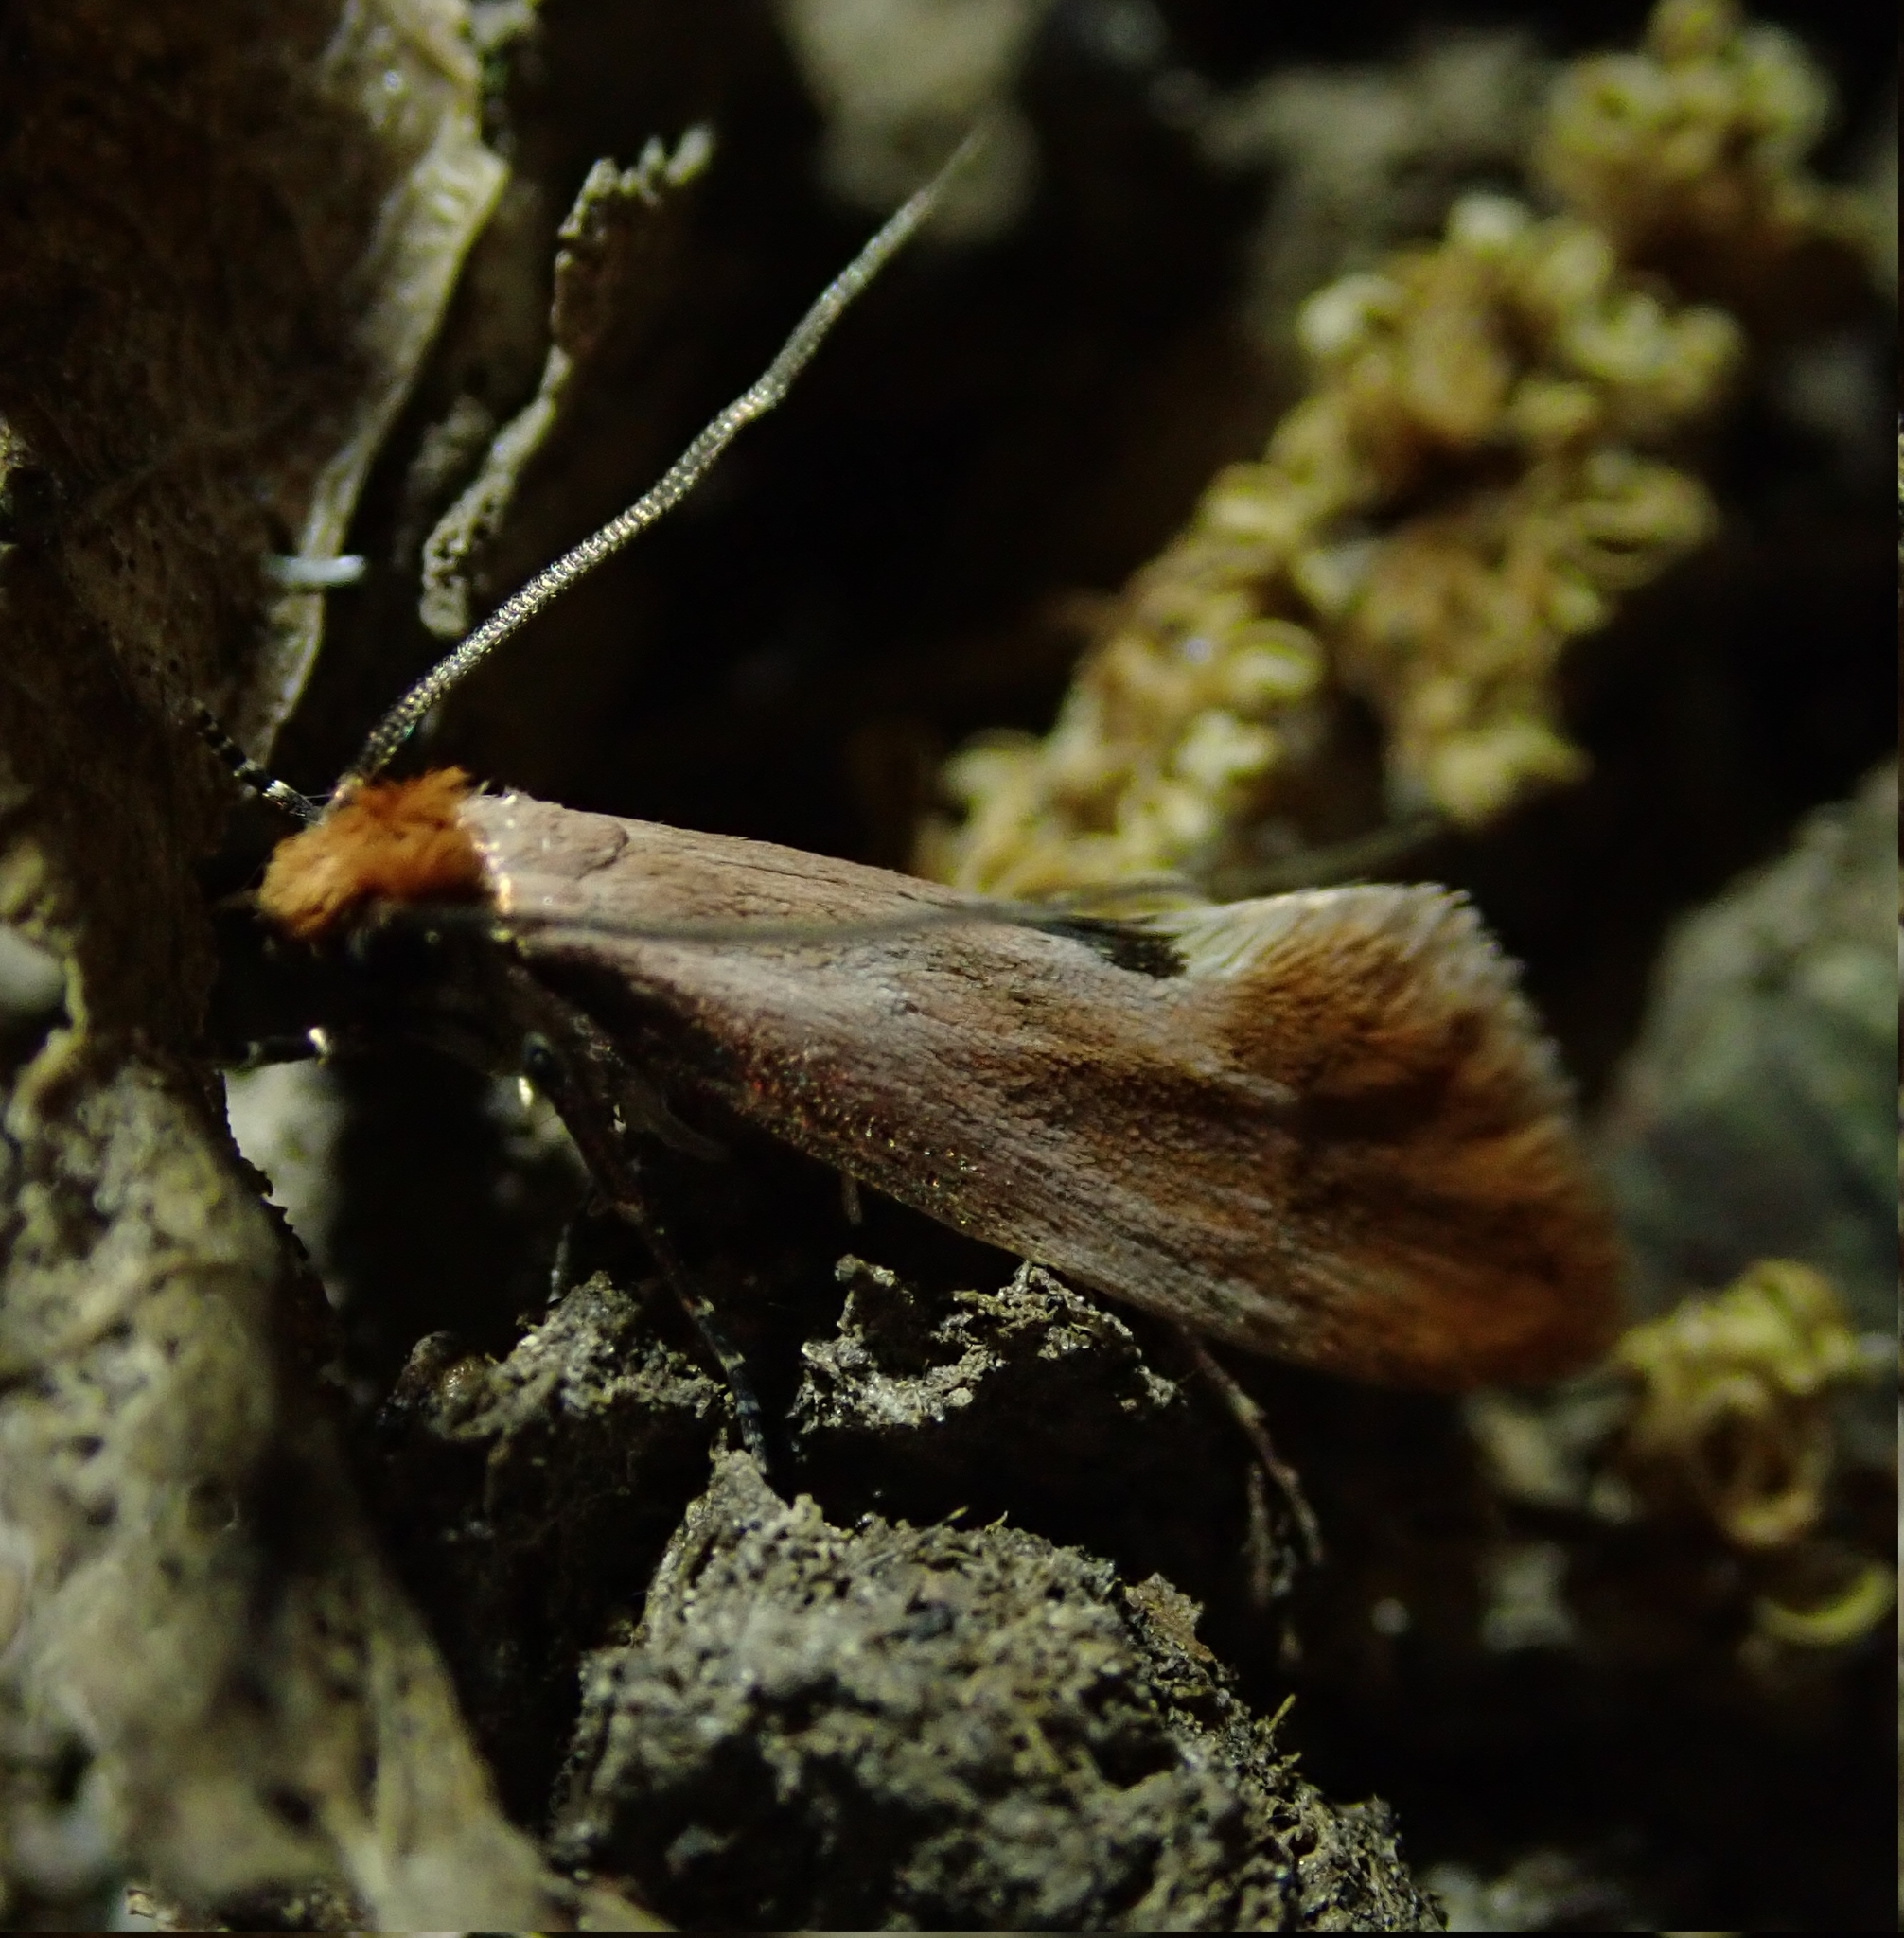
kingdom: Animalia
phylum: Arthropoda
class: Insecta
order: Lepidoptera
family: Tineidae
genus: Tinea
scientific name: Tinea semifulvella
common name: Fulvous clothes
